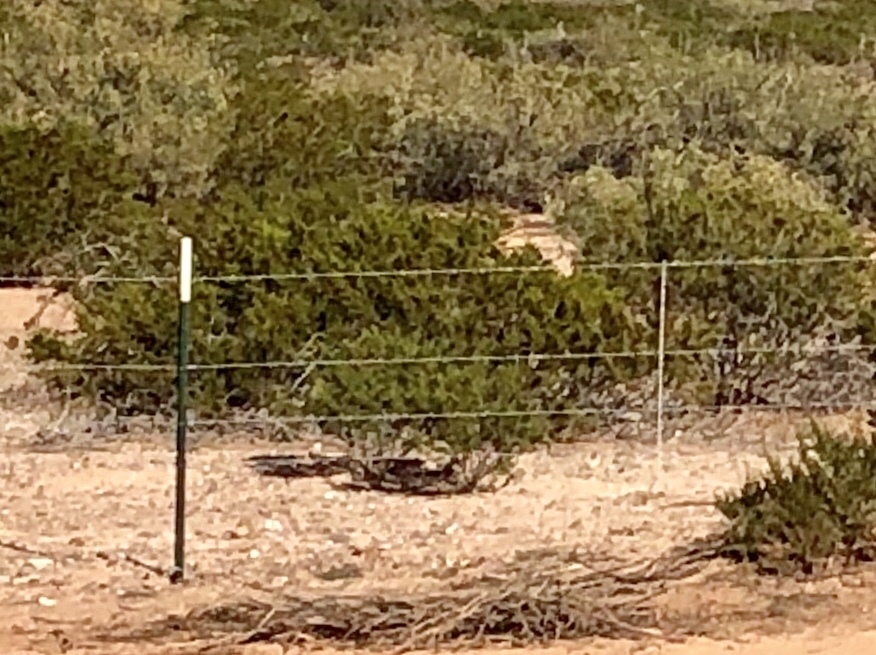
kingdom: Plantae
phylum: Tracheophyta
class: Magnoliopsida
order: Zygophyllales
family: Zygophyllaceae
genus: Larrea
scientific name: Larrea tridentata
